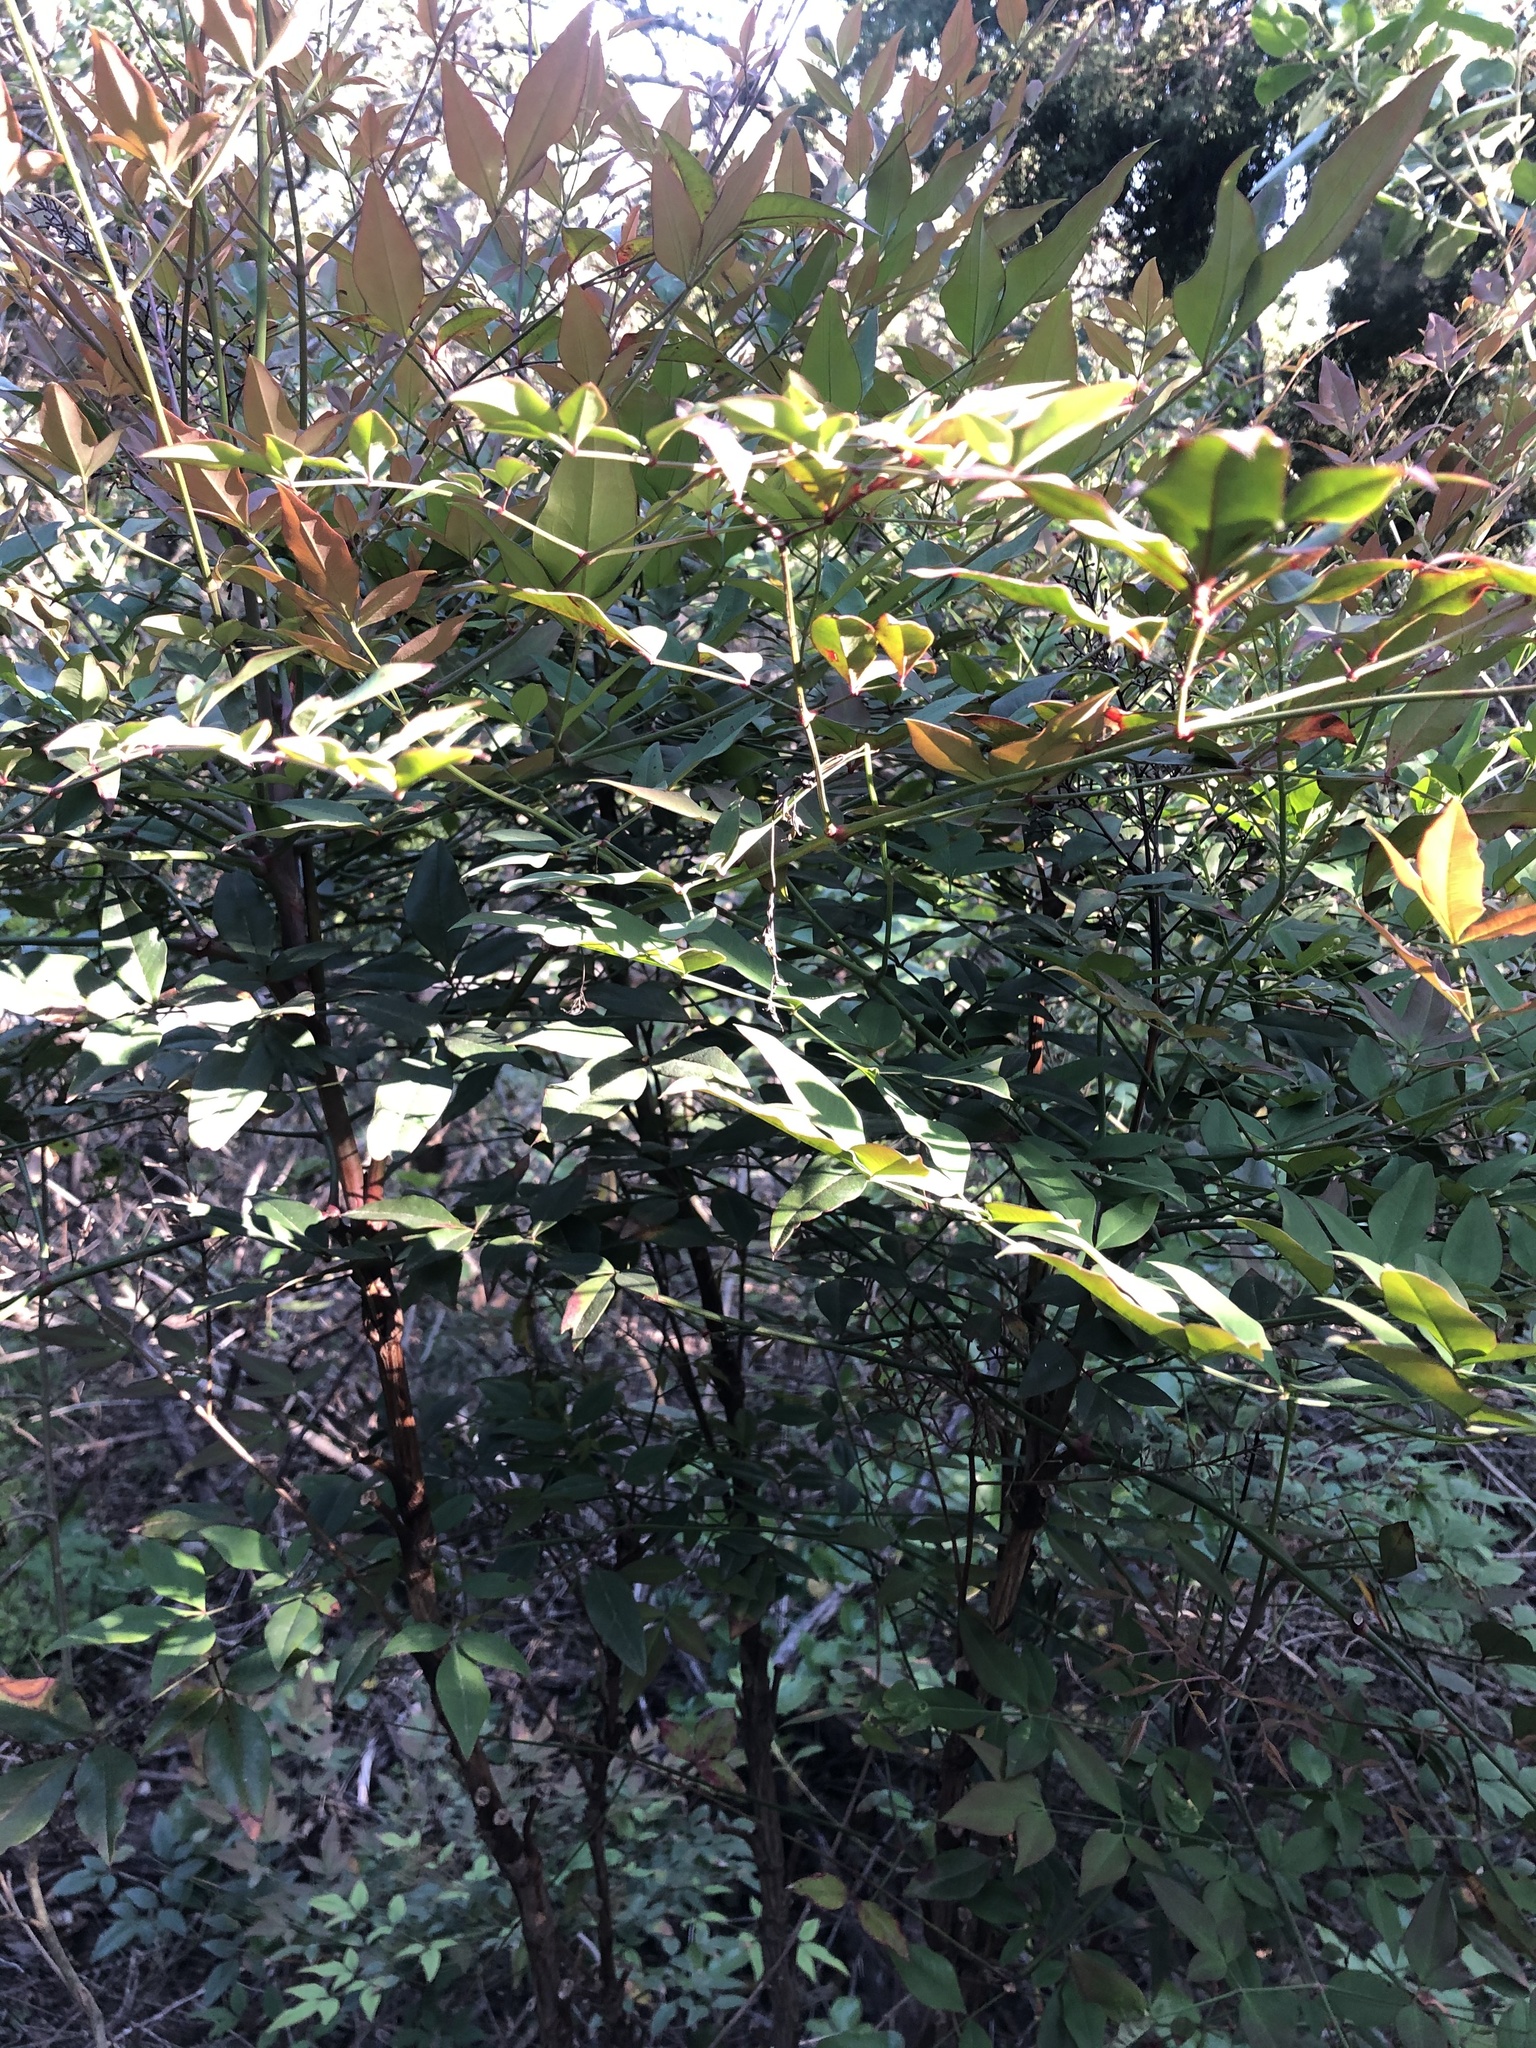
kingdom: Plantae
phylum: Tracheophyta
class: Magnoliopsida
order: Ranunculales
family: Berberidaceae
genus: Nandina
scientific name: Nandina domestica
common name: Sacred bamboo
